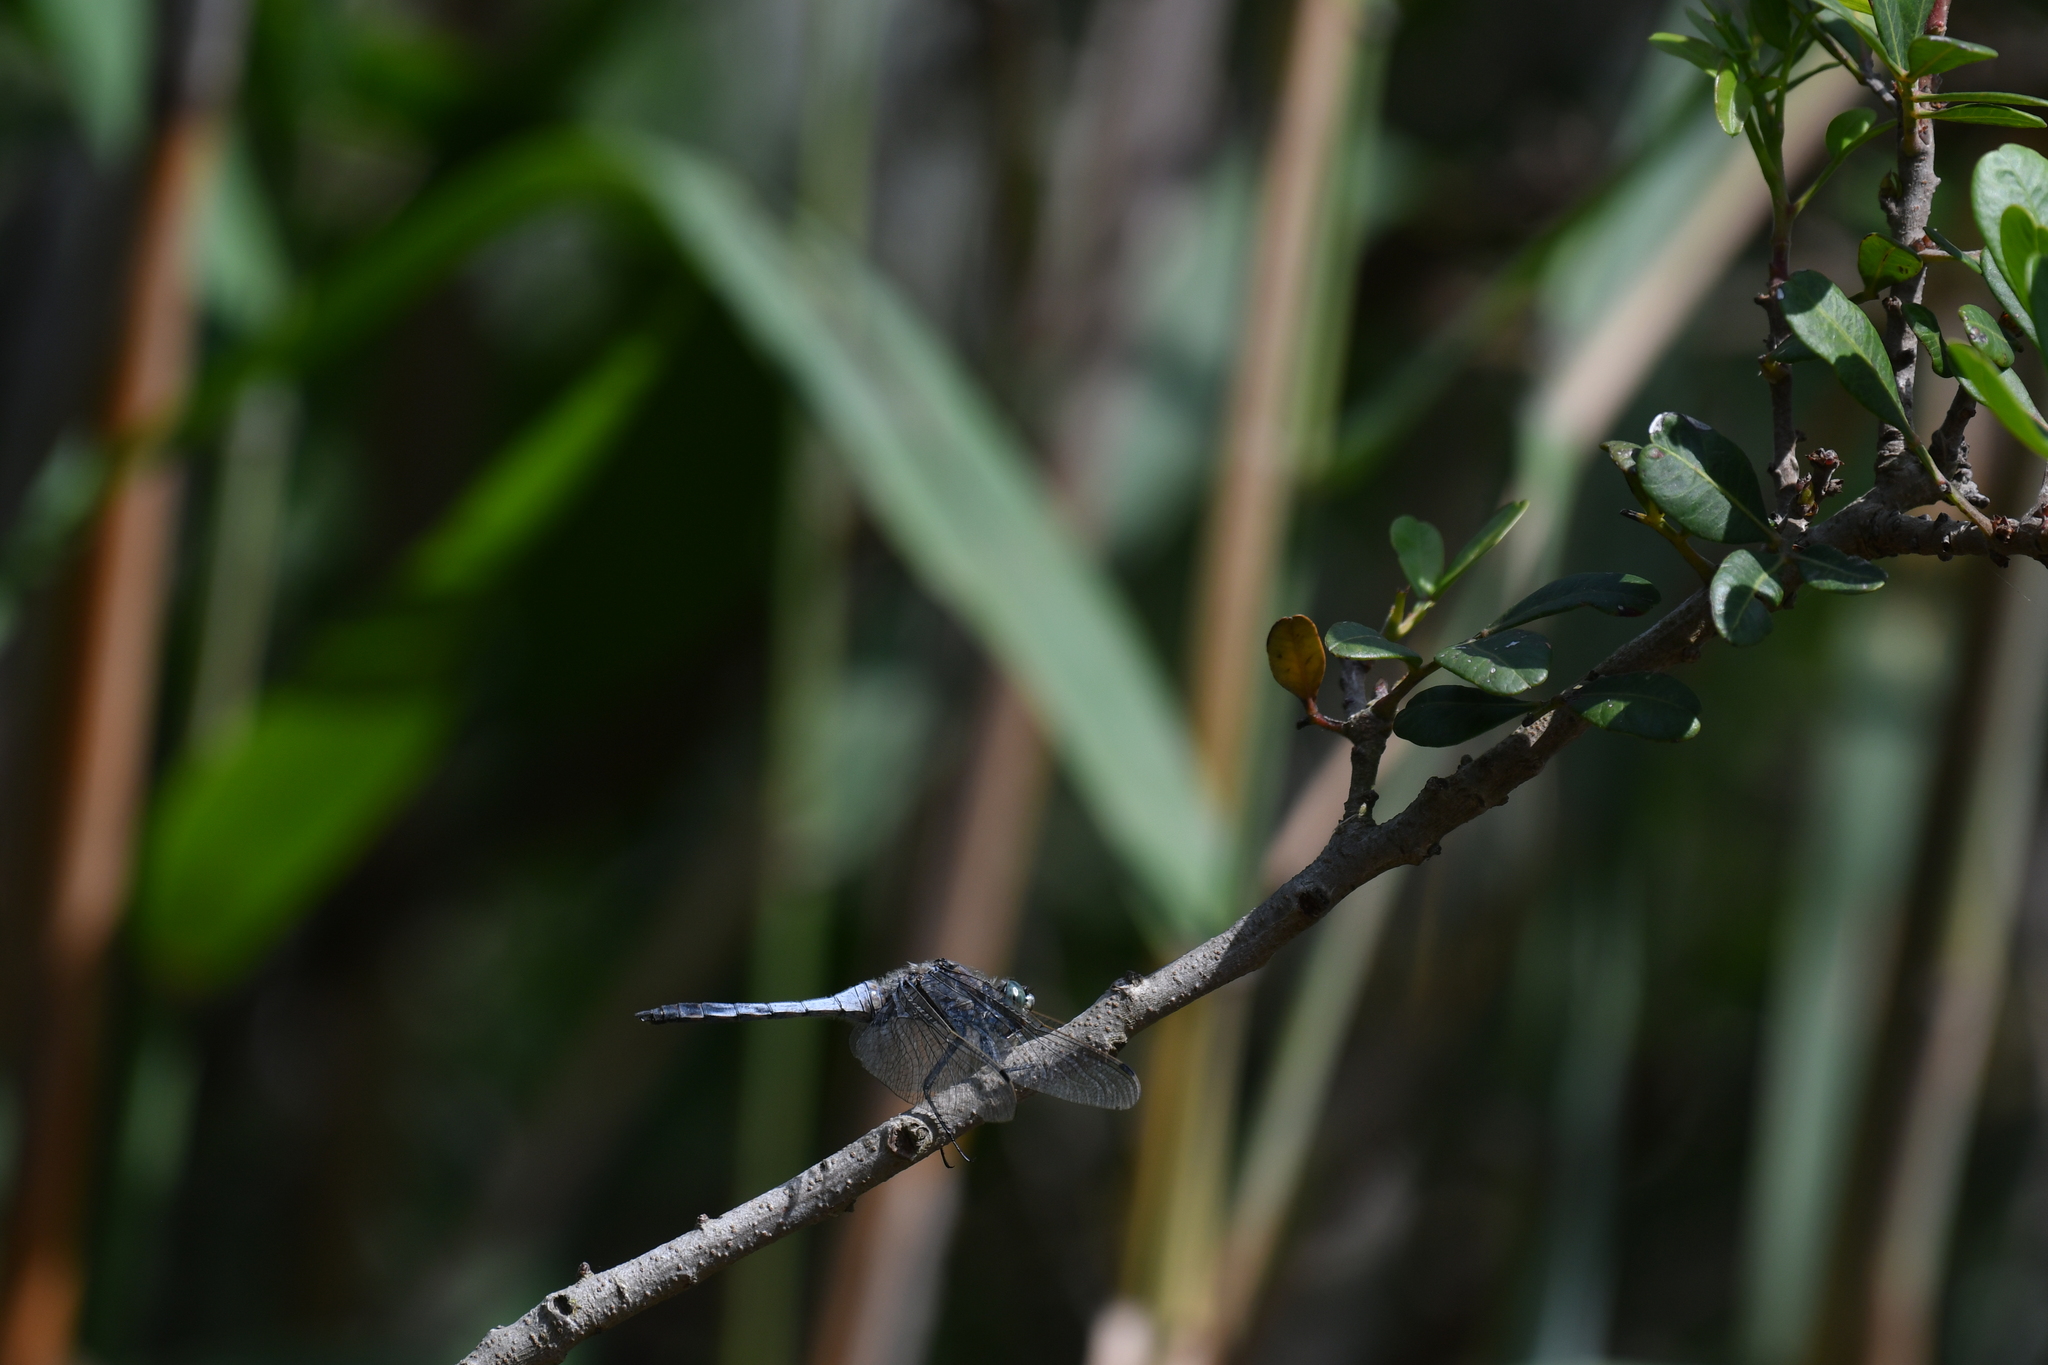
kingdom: Animalia
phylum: Arthropoda
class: Insecta
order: Odonata
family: Libellulidae
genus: Orthetrum
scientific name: Orthetrum cancellatum
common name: Black-tailed skimmer
